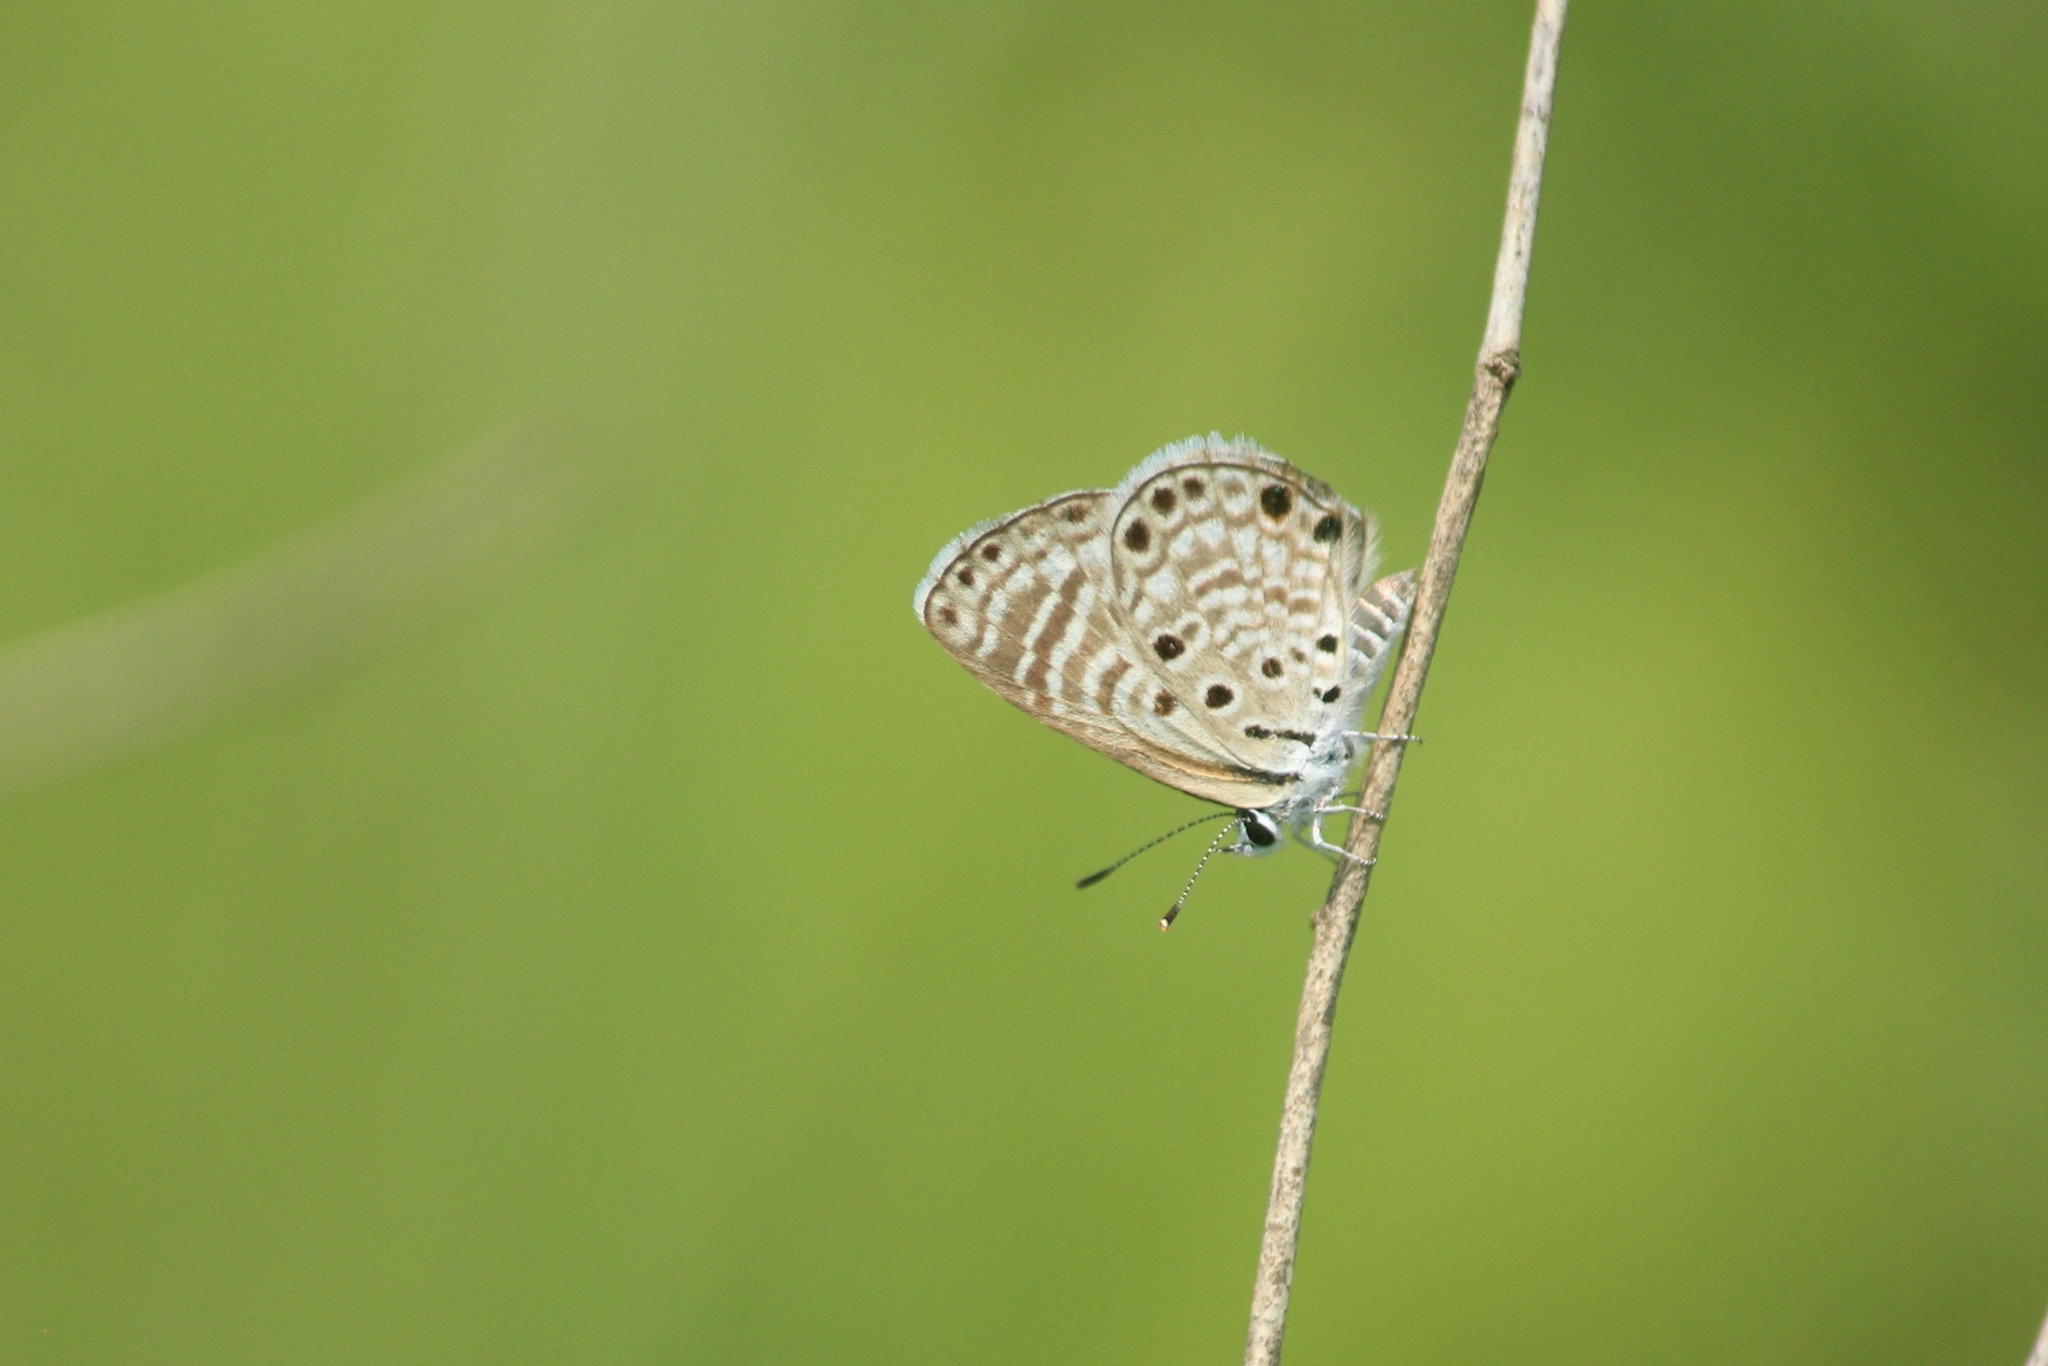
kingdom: Animalia
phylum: Arthropoda
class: Insecta
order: Lepidoptera
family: Lycaenidae
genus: Azanus
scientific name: Azanus jesous
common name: African babul blue
